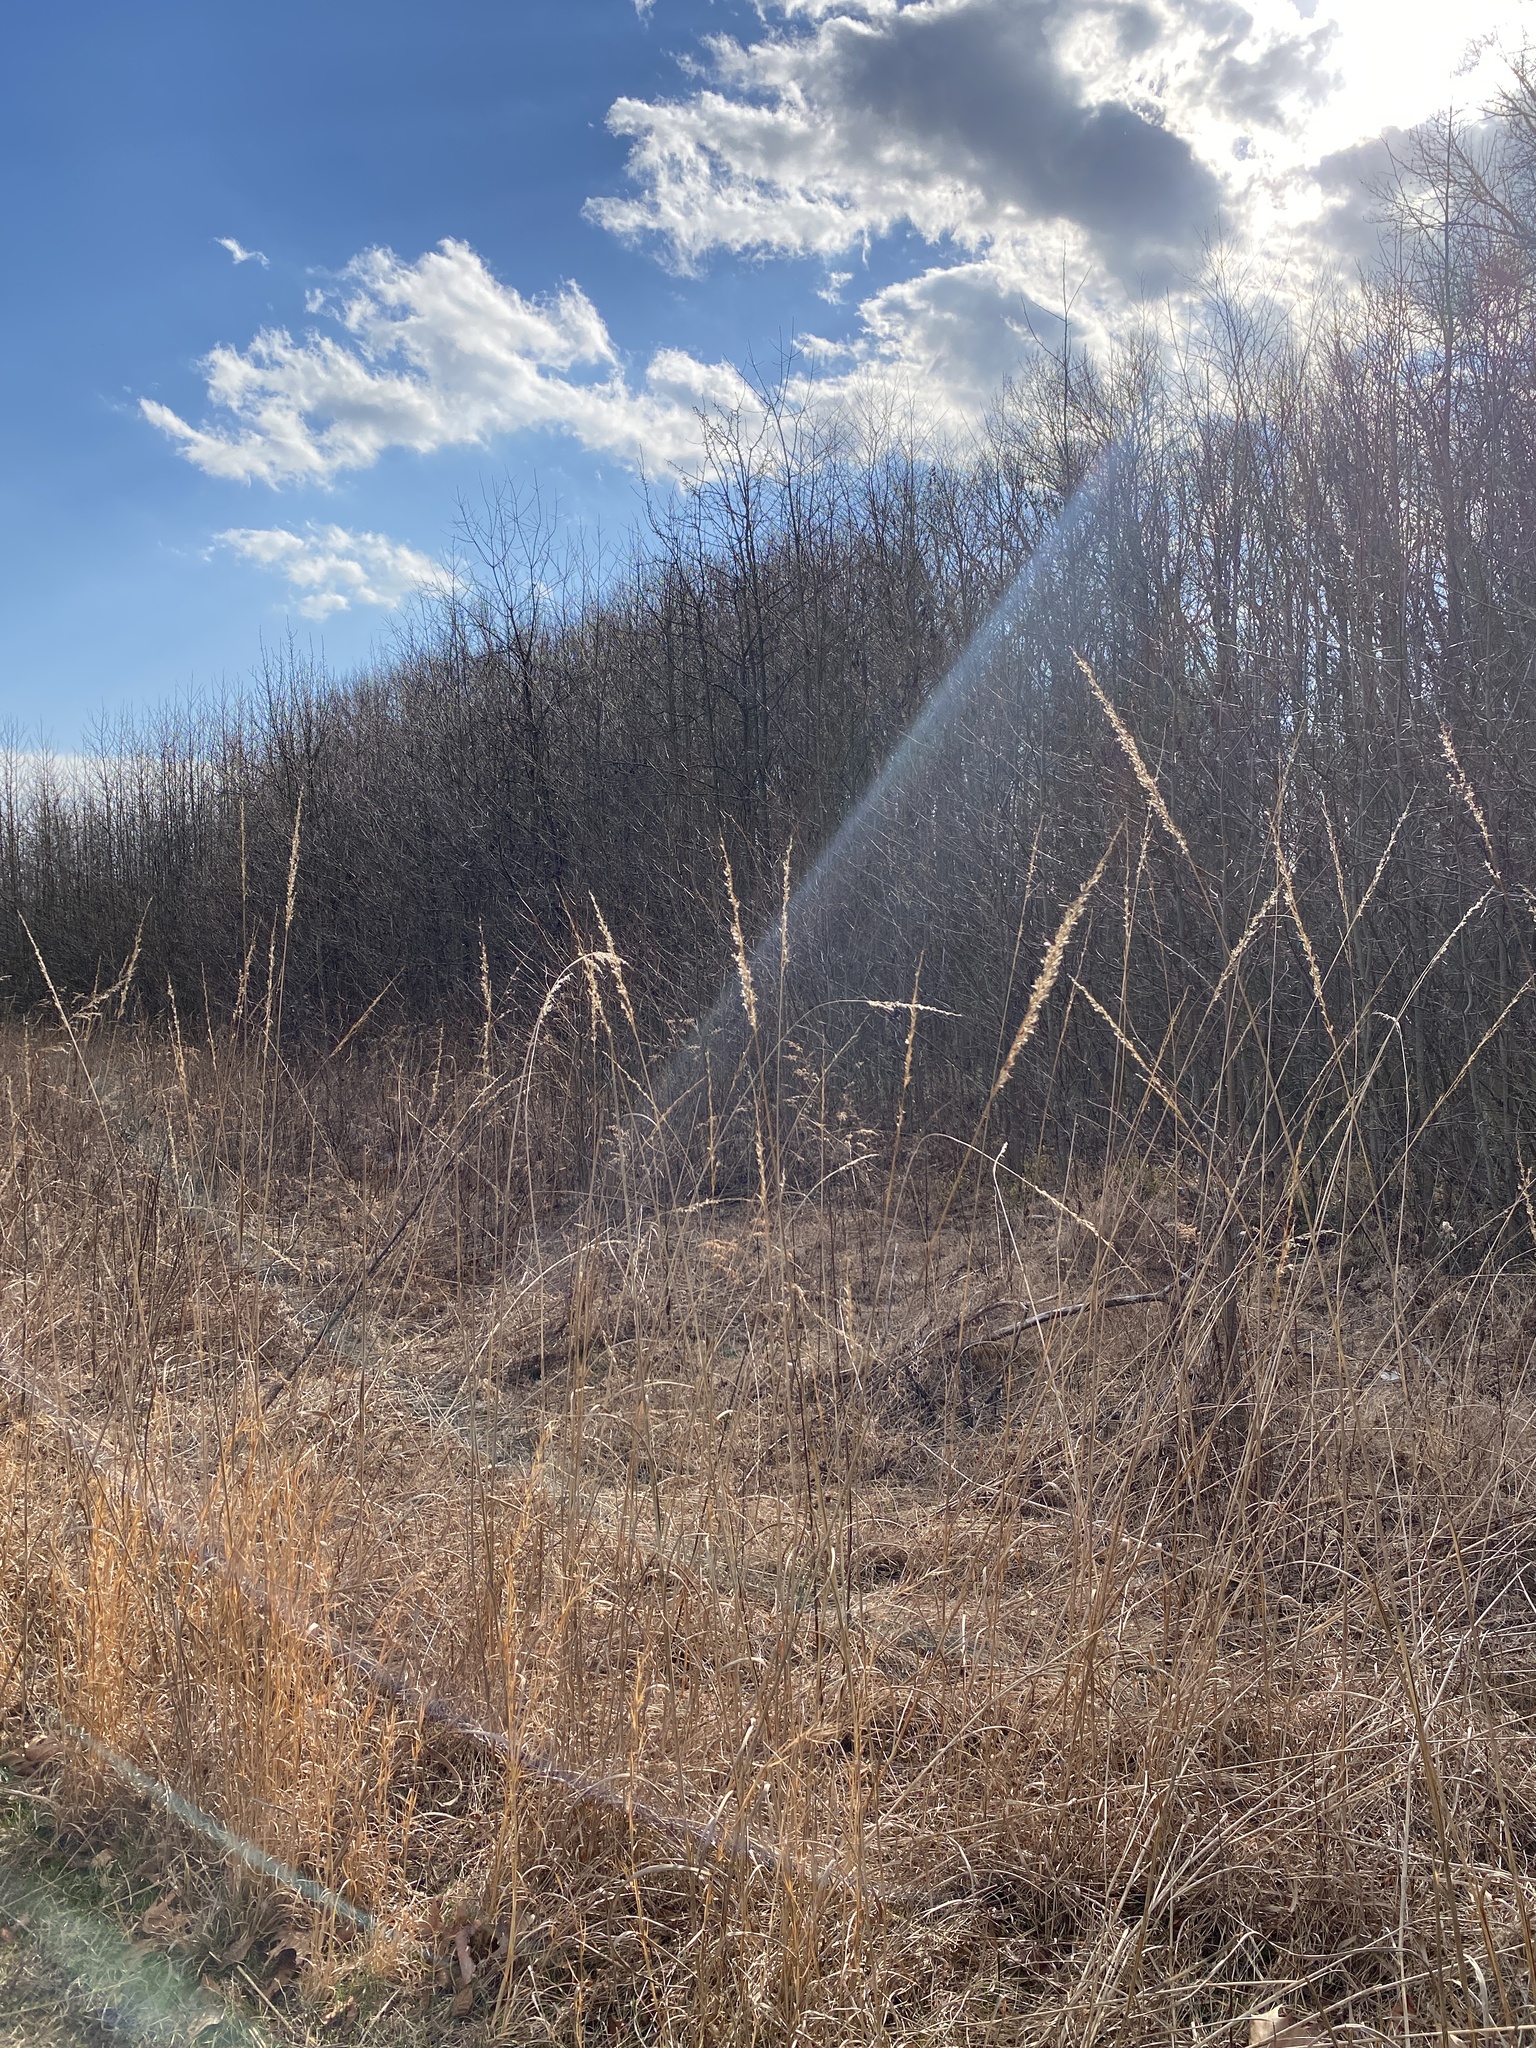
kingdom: Plantae
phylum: Tracheophyta
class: Liliopsida
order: Poales
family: Poaceae
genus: Sorghastrum
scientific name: Sorghastrum nutans
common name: Indian grass
